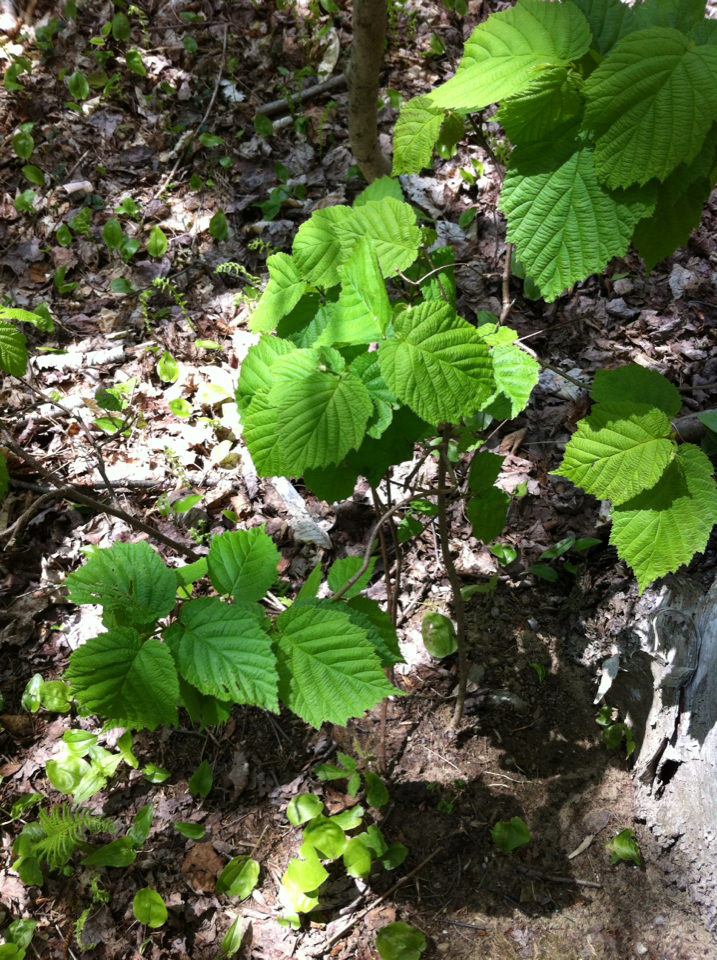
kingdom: Plantae
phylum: Tracheophyta
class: Magnoliopsida
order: Fagales
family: Betulaceae
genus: Corylus
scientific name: Corylus cornuta
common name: Beaked hazel
